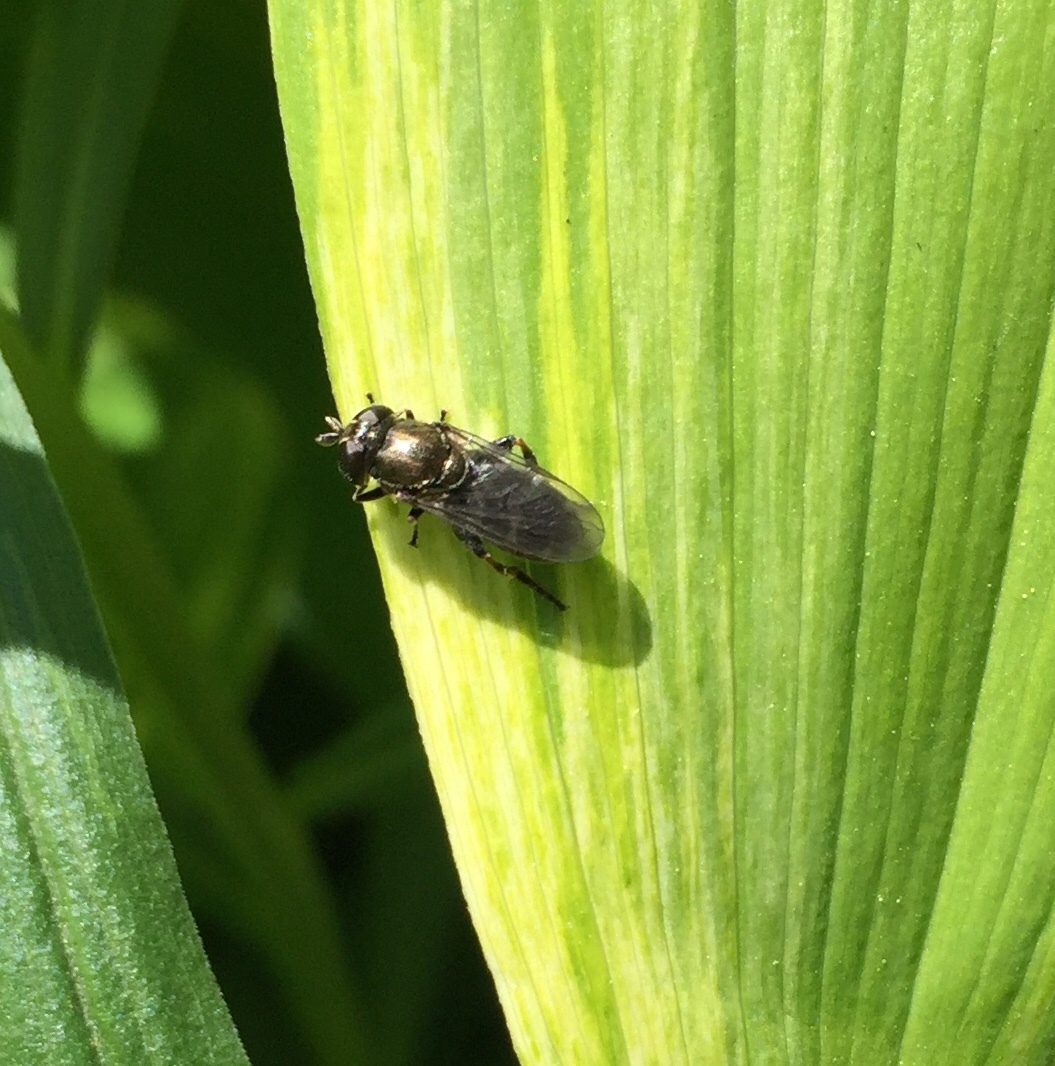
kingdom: Animalia
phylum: Arthropoda
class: Insecta
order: Diptera
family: Syrphidae
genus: Eumerus
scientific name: Eumerus
